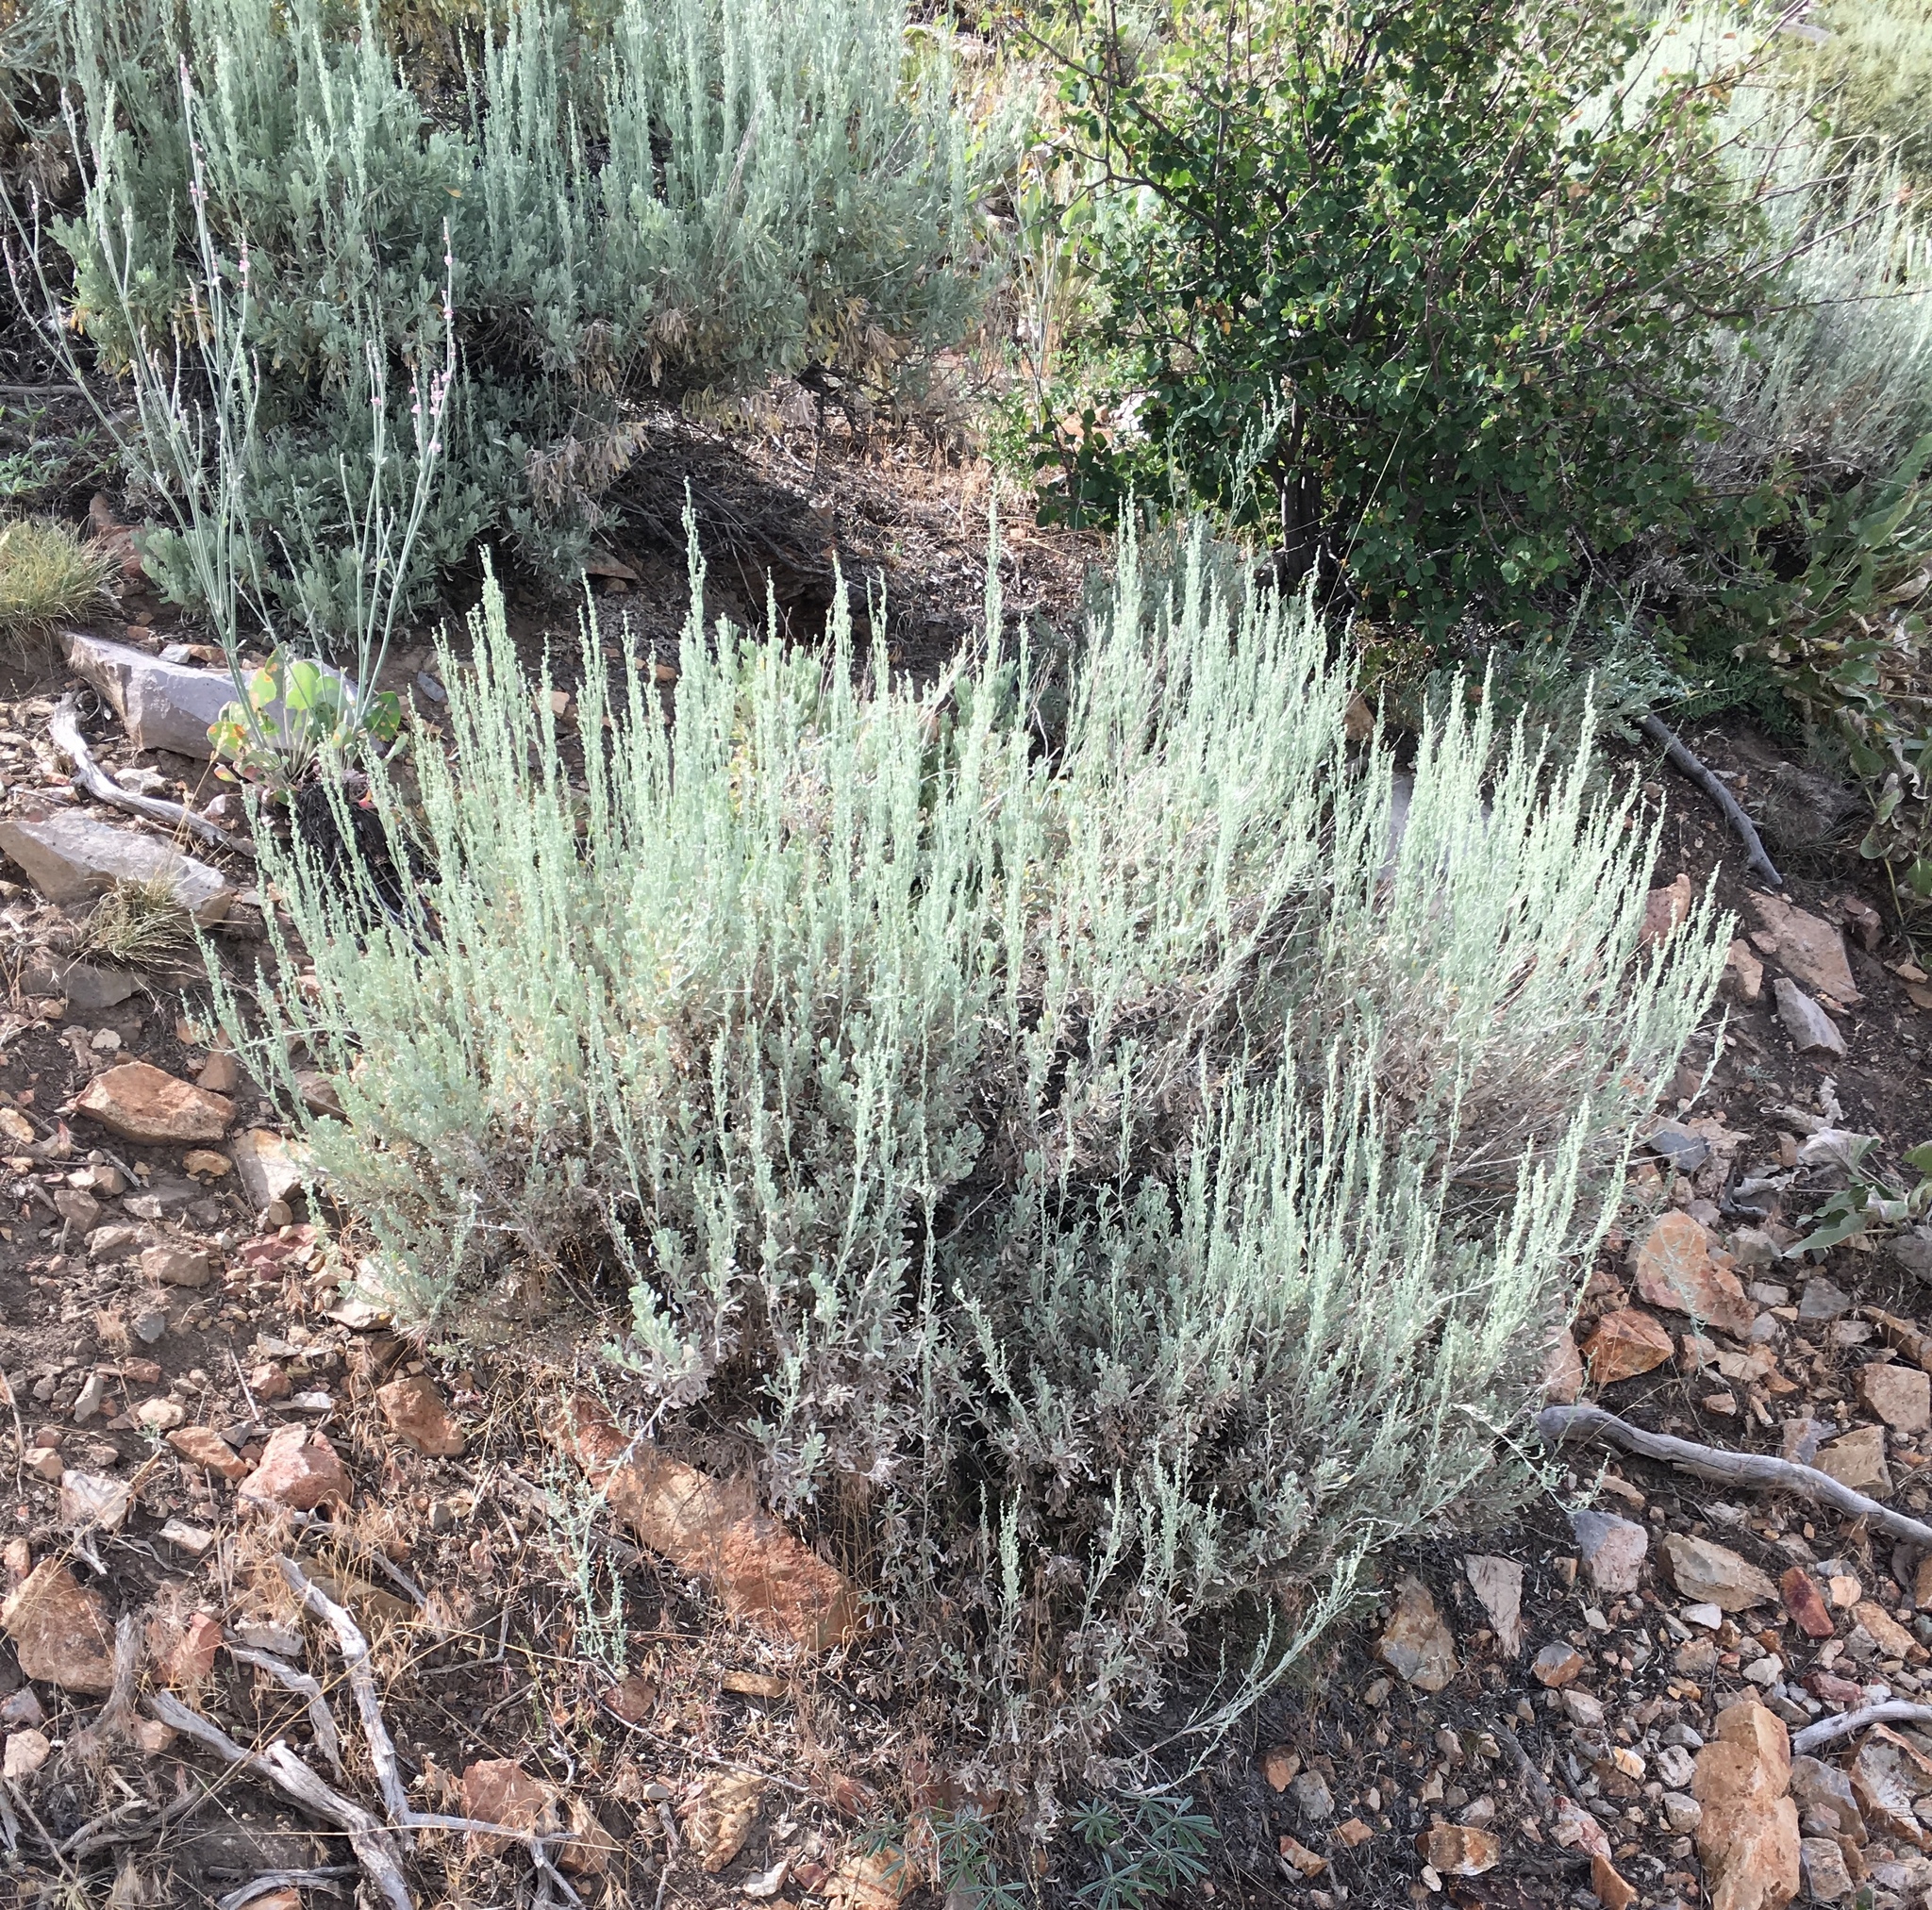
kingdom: Plantae
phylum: Tracheophyta
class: Magnoliopsida
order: Asterales
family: Asteraceae
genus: Artemisia
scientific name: Artemisia tridentata
